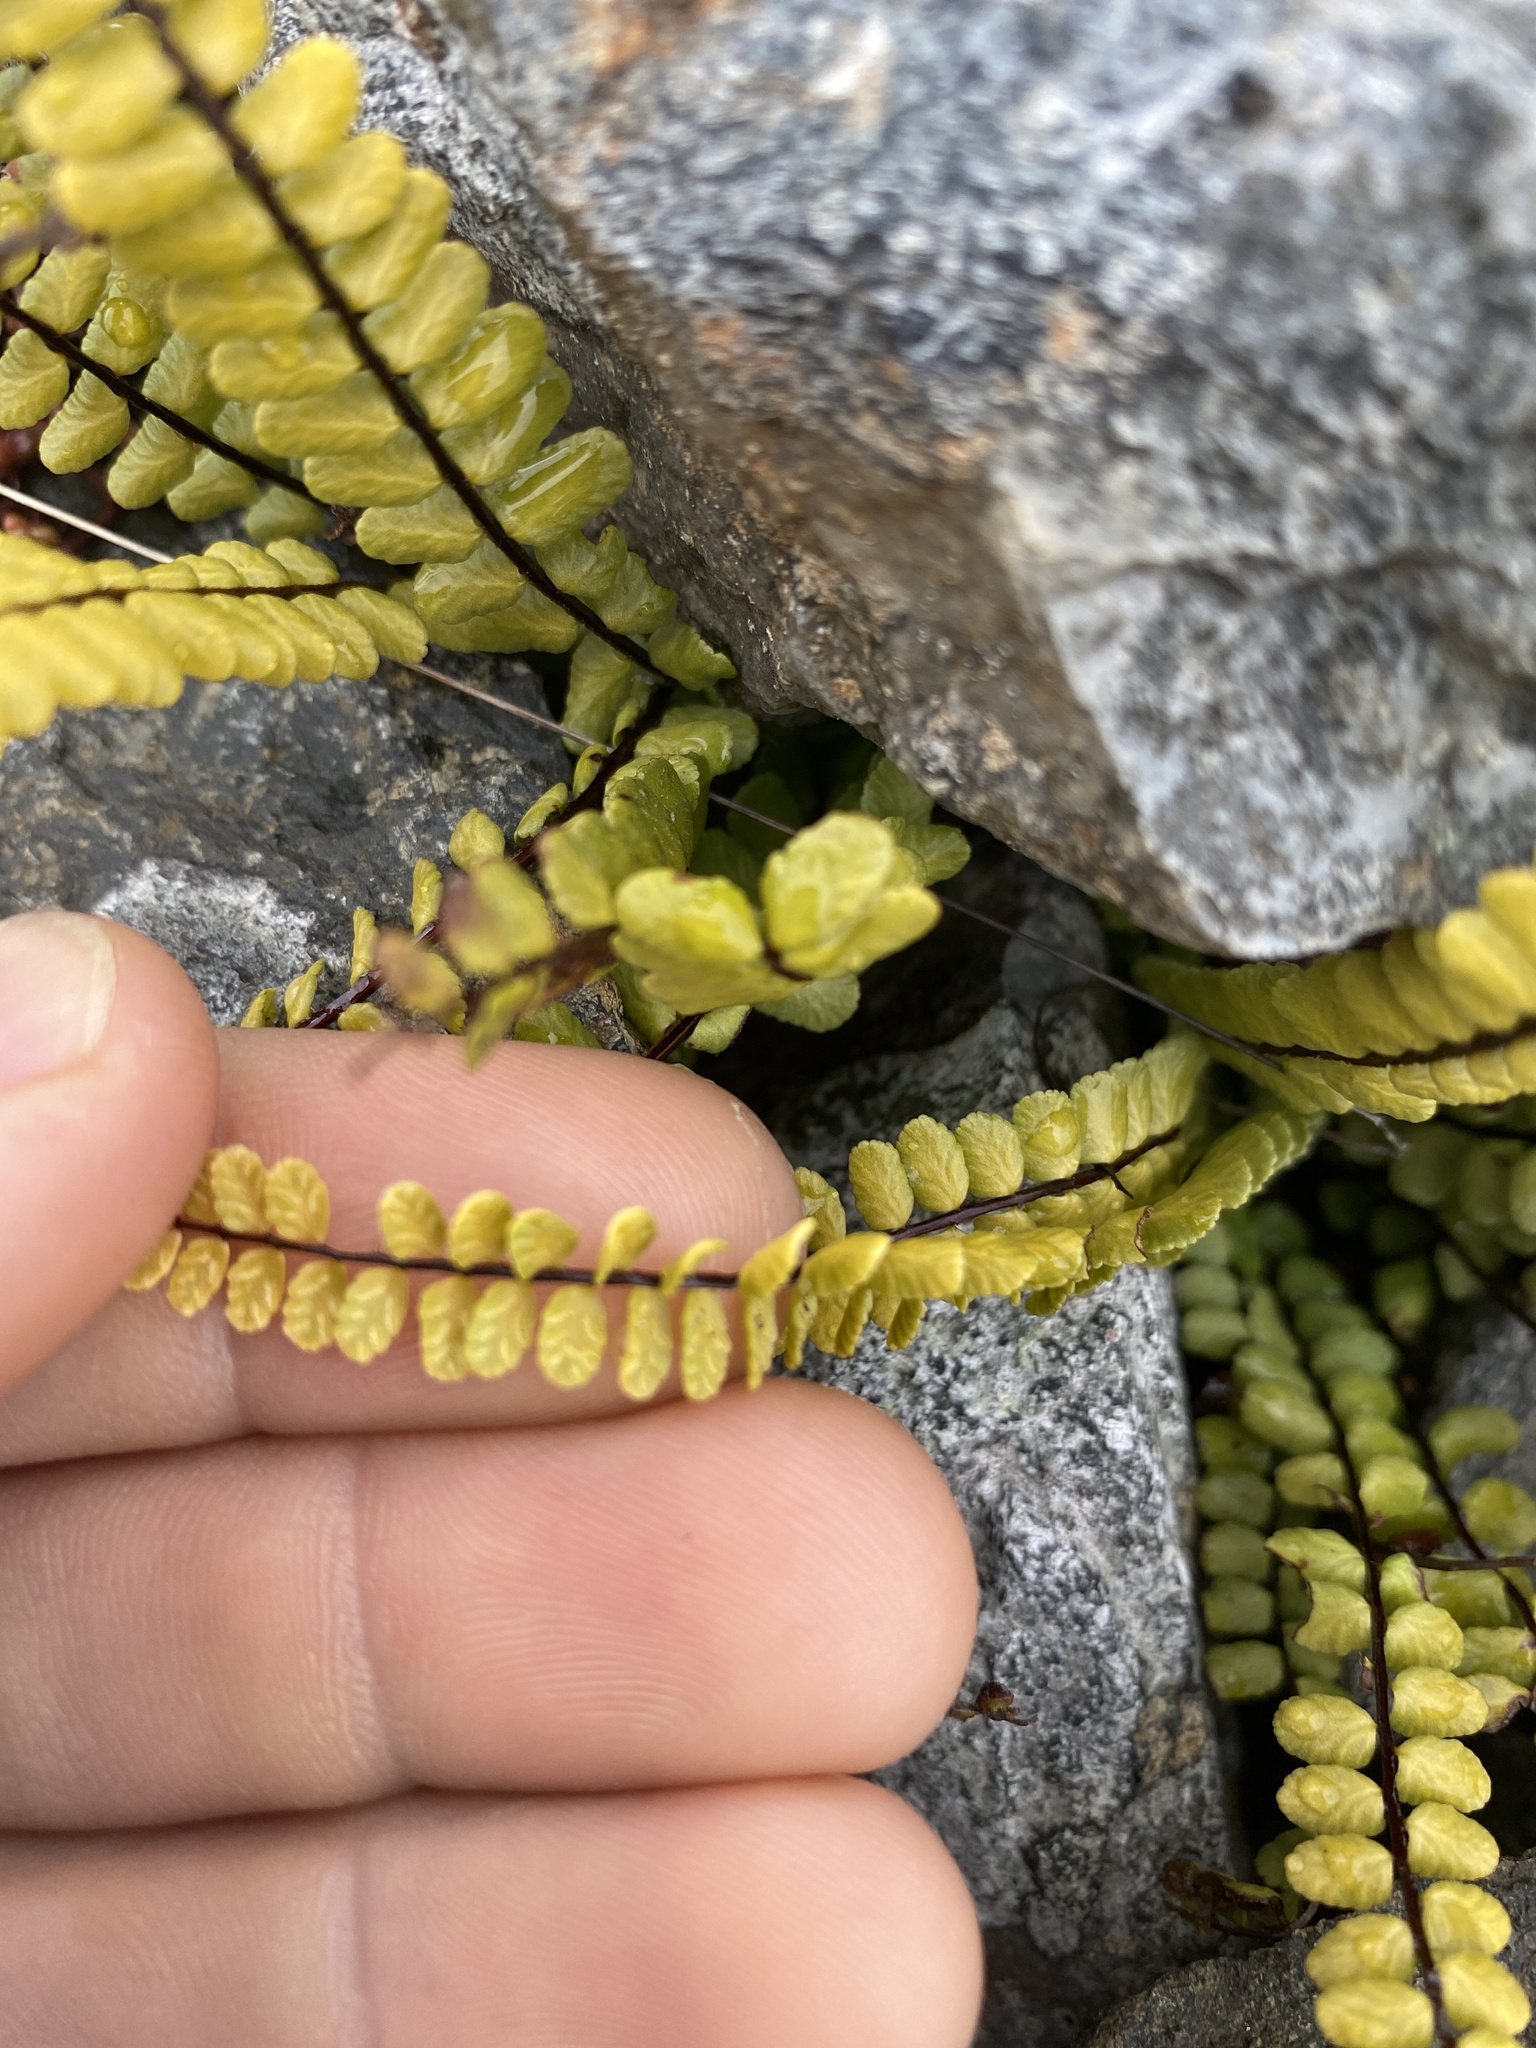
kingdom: Plantae
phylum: Tracheophyta
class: Polypodiopsida
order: Polypodiales
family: Aspleniaceae
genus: Asplenium
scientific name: Asplenium trichomanes
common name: Maidenhair spleenwort
